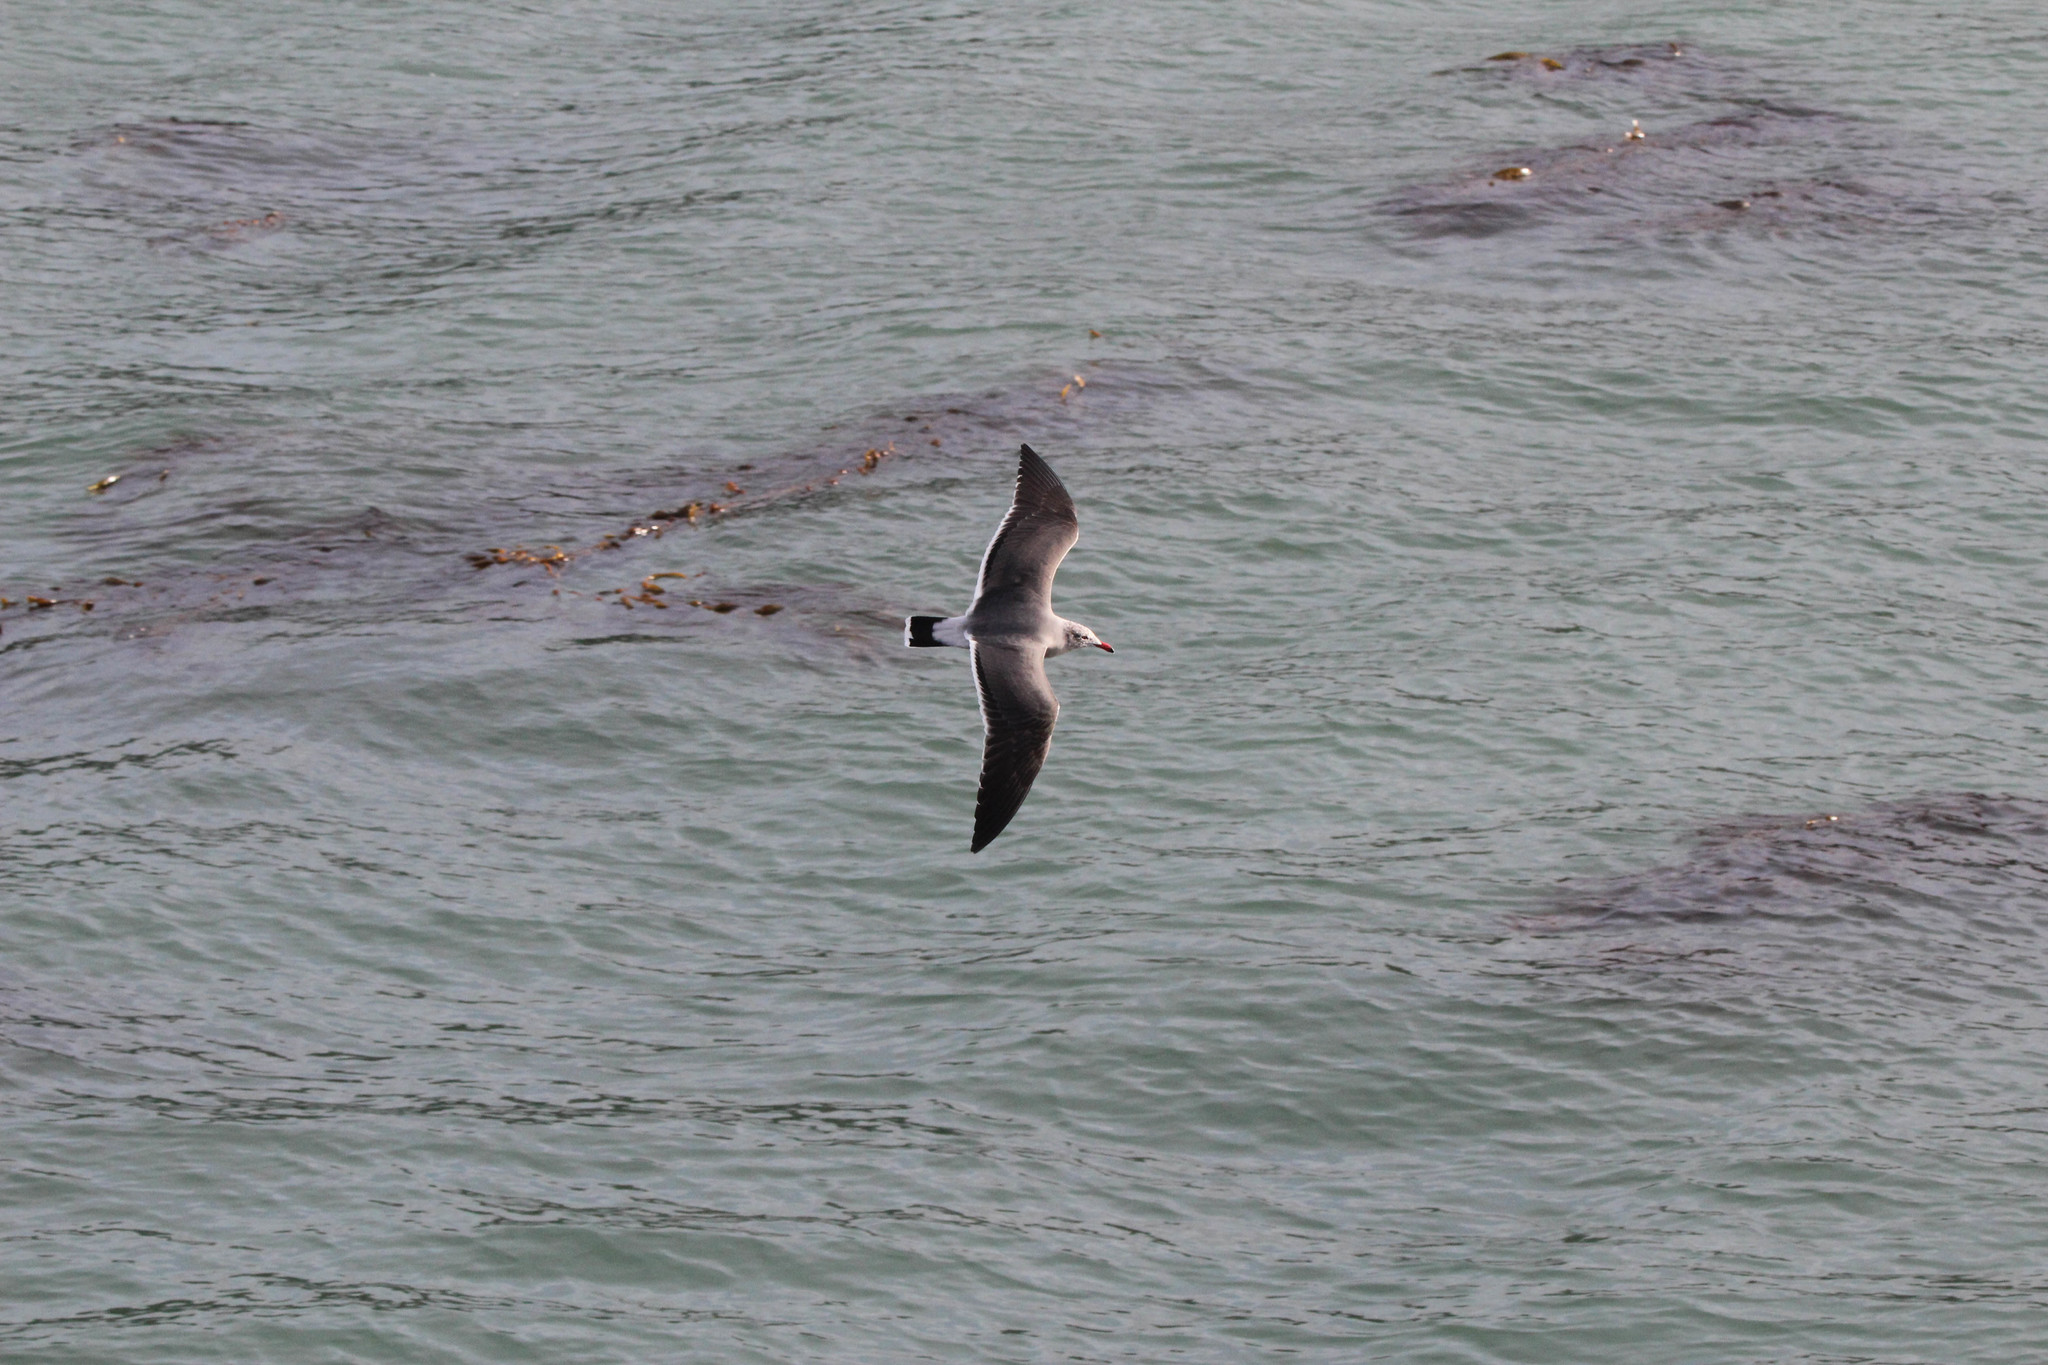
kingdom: Animalia
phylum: Chordata
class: Aves
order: Charadriiformes
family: Laridae
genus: Larus
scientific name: Larus heermanni
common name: Heermann's gull
